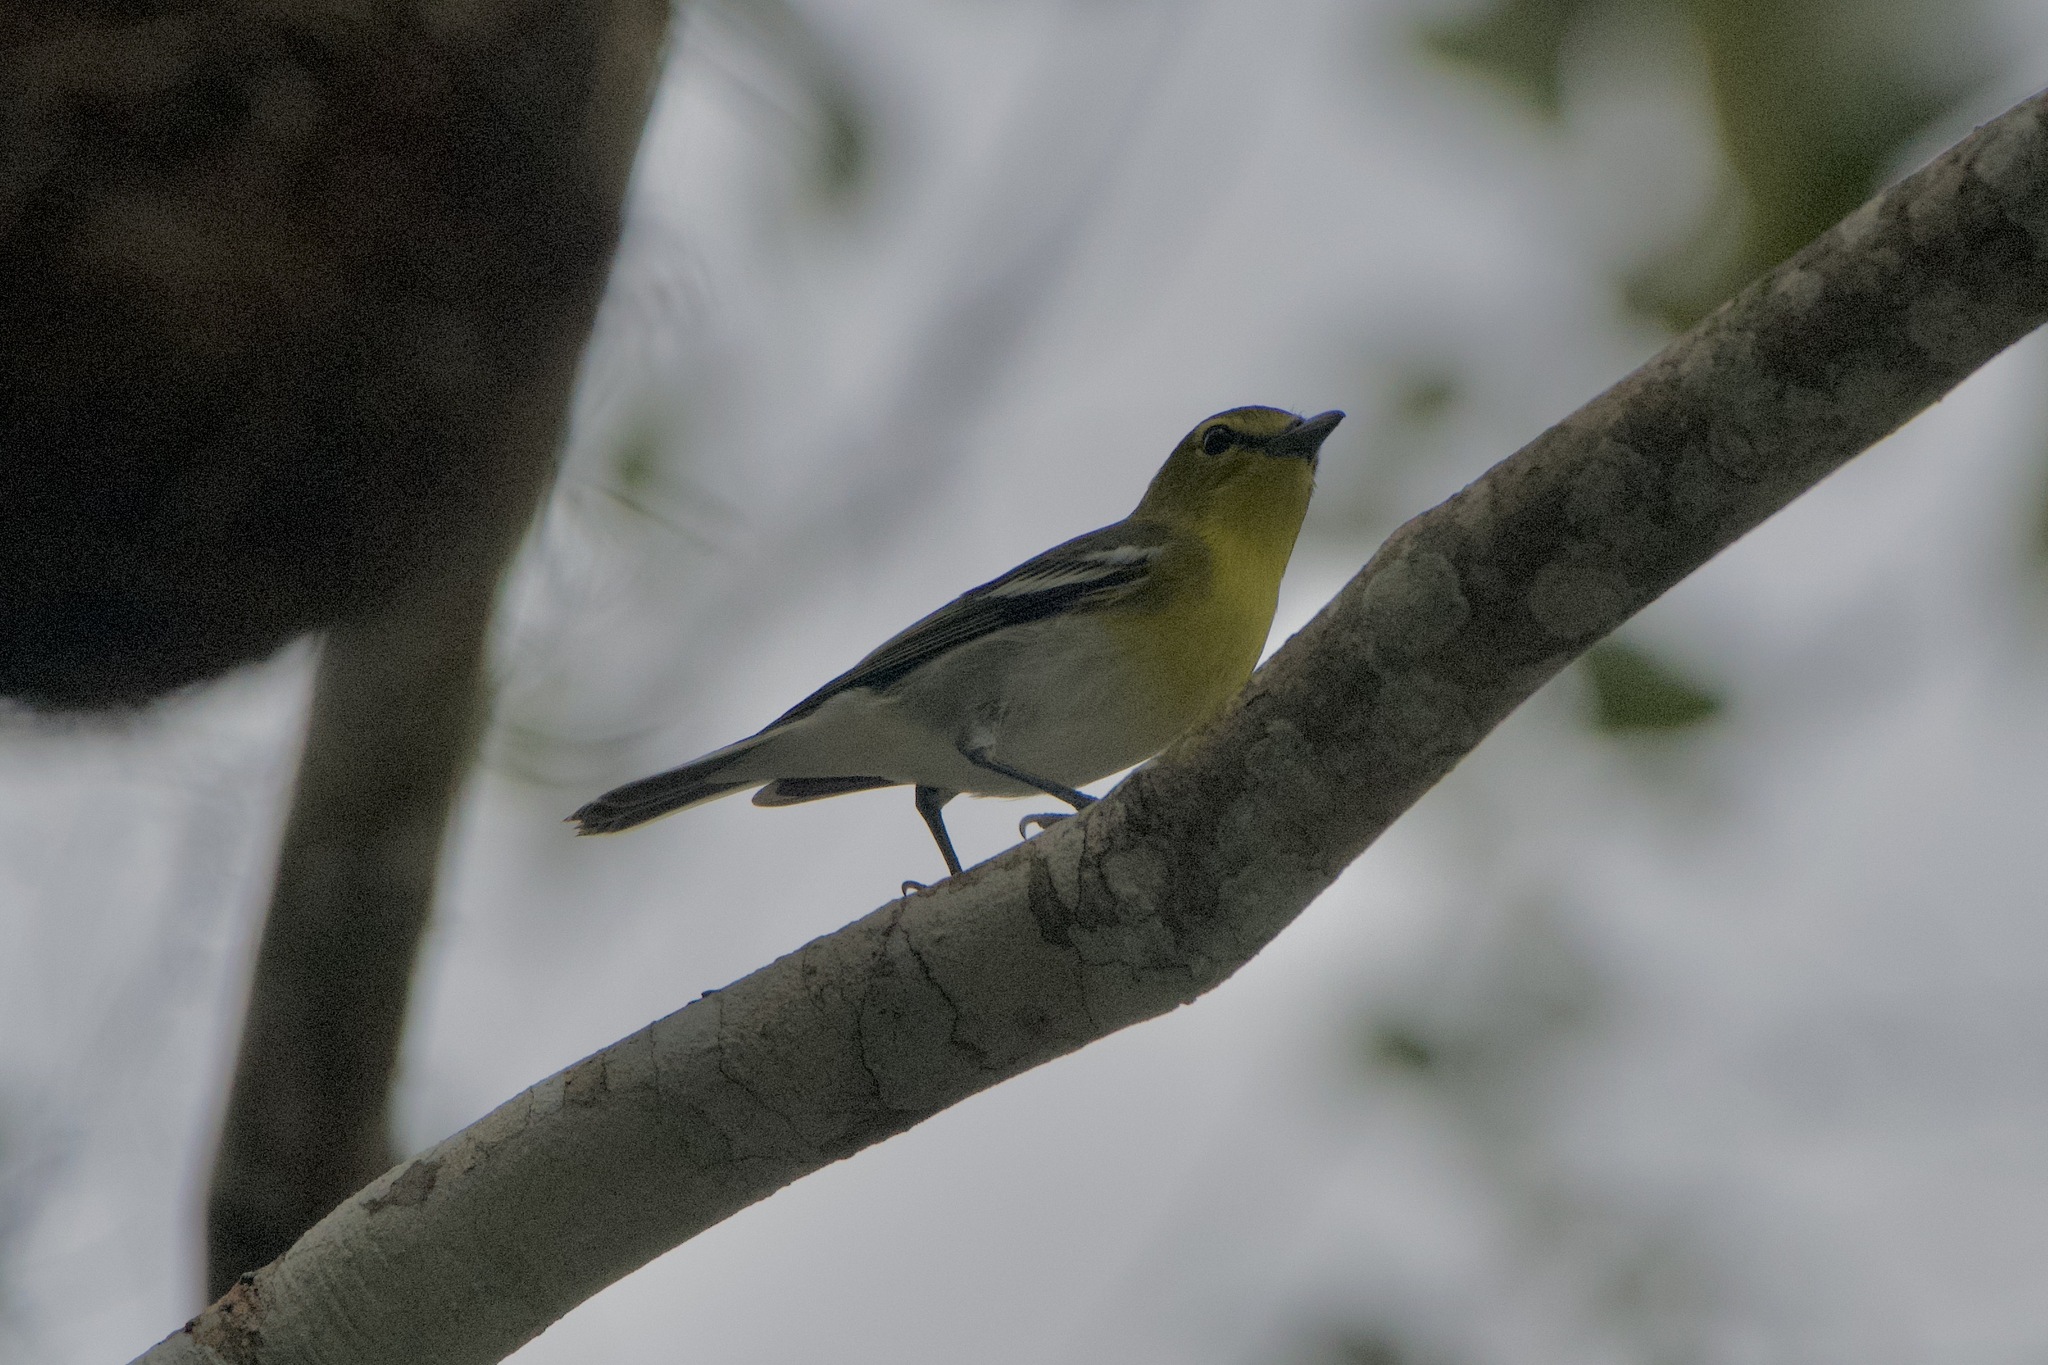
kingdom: Animalia
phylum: Chordata
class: Aves
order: Passeriformes
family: Vireonidae
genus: Vireo
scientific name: Vireo flavifrons
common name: Yellow-throated vireo
